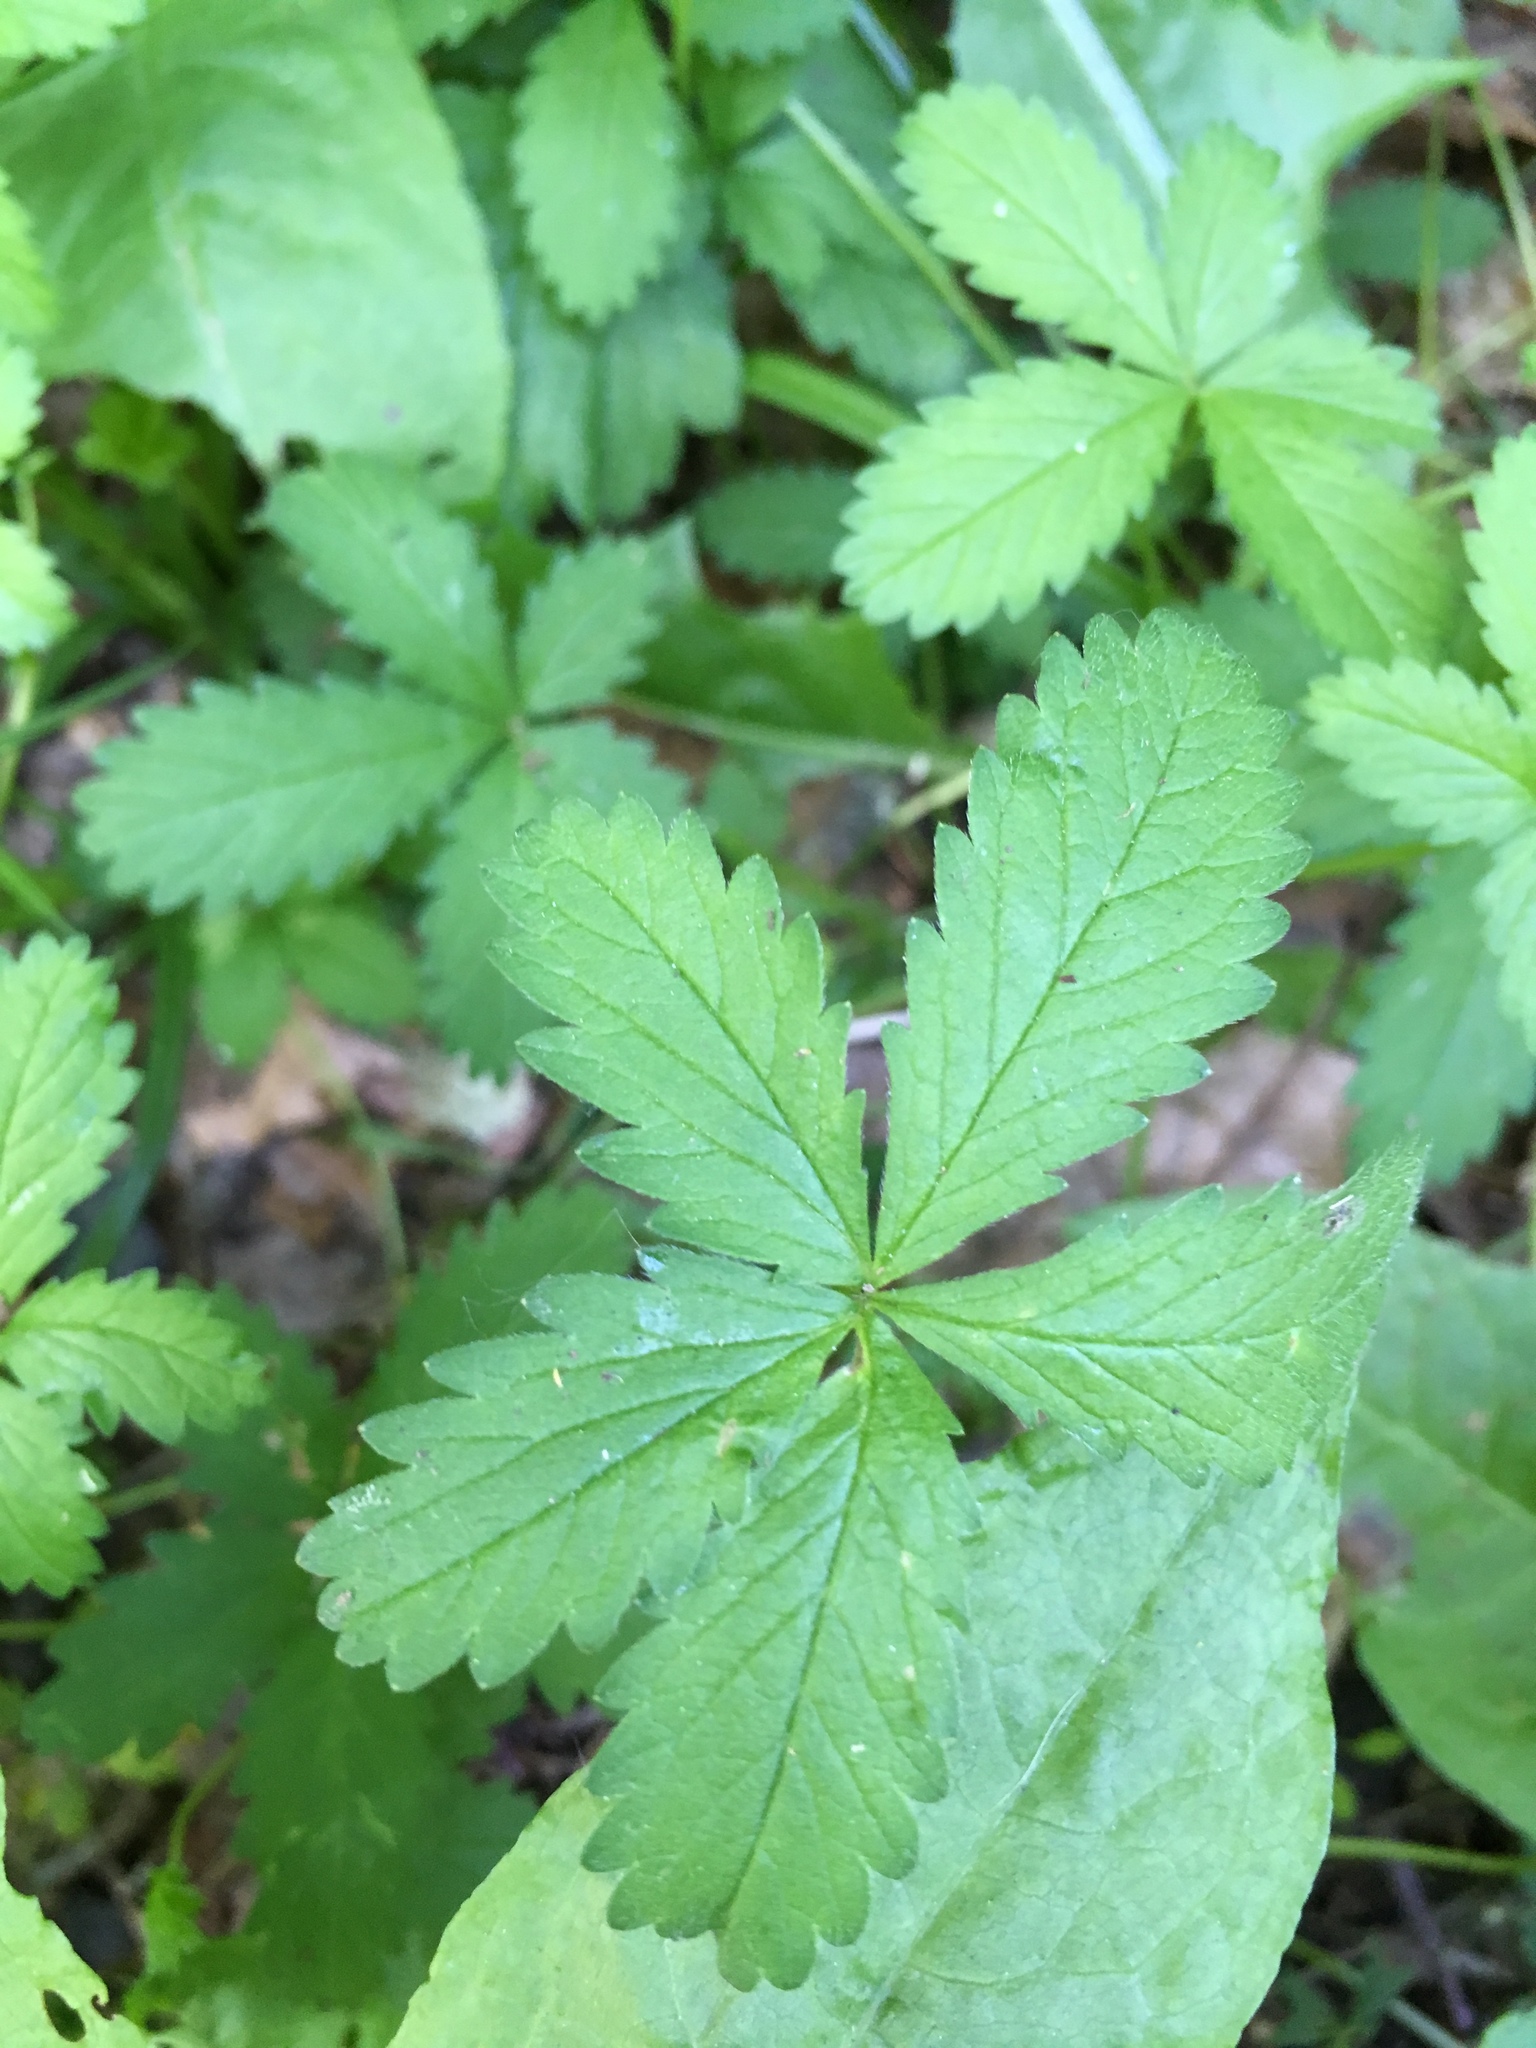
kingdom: Plantae
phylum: Tracheophyta
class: Magnoliopsida
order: Rosales
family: Rosaceae
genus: Potentilla
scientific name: Potentilla reptans
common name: Creeping cinquefoil
